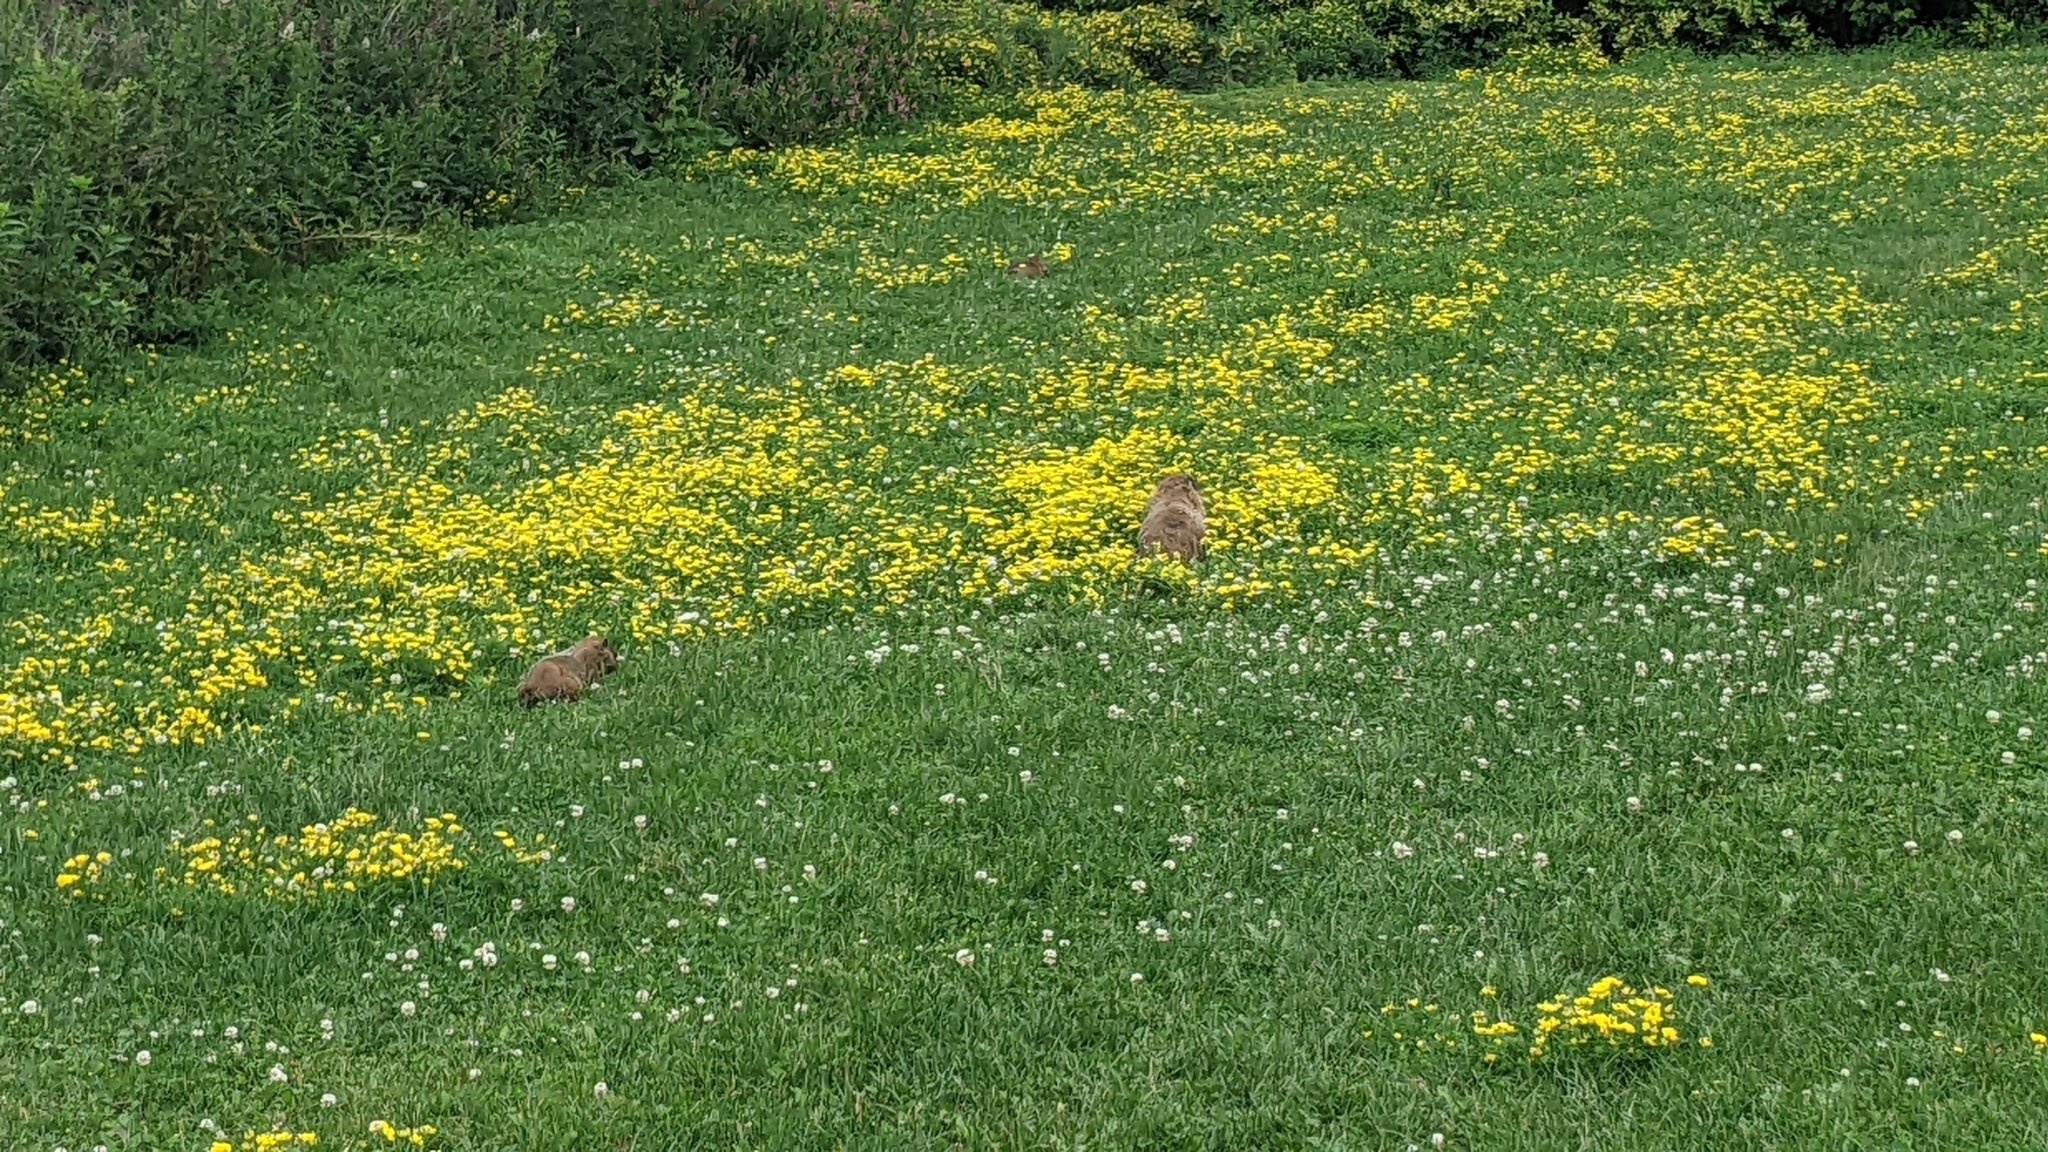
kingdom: Animalia
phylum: Chordata
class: Mammalia
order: Rodentia
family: Sciuridae
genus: Marmota
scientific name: Marmota monax
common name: Groundhog
